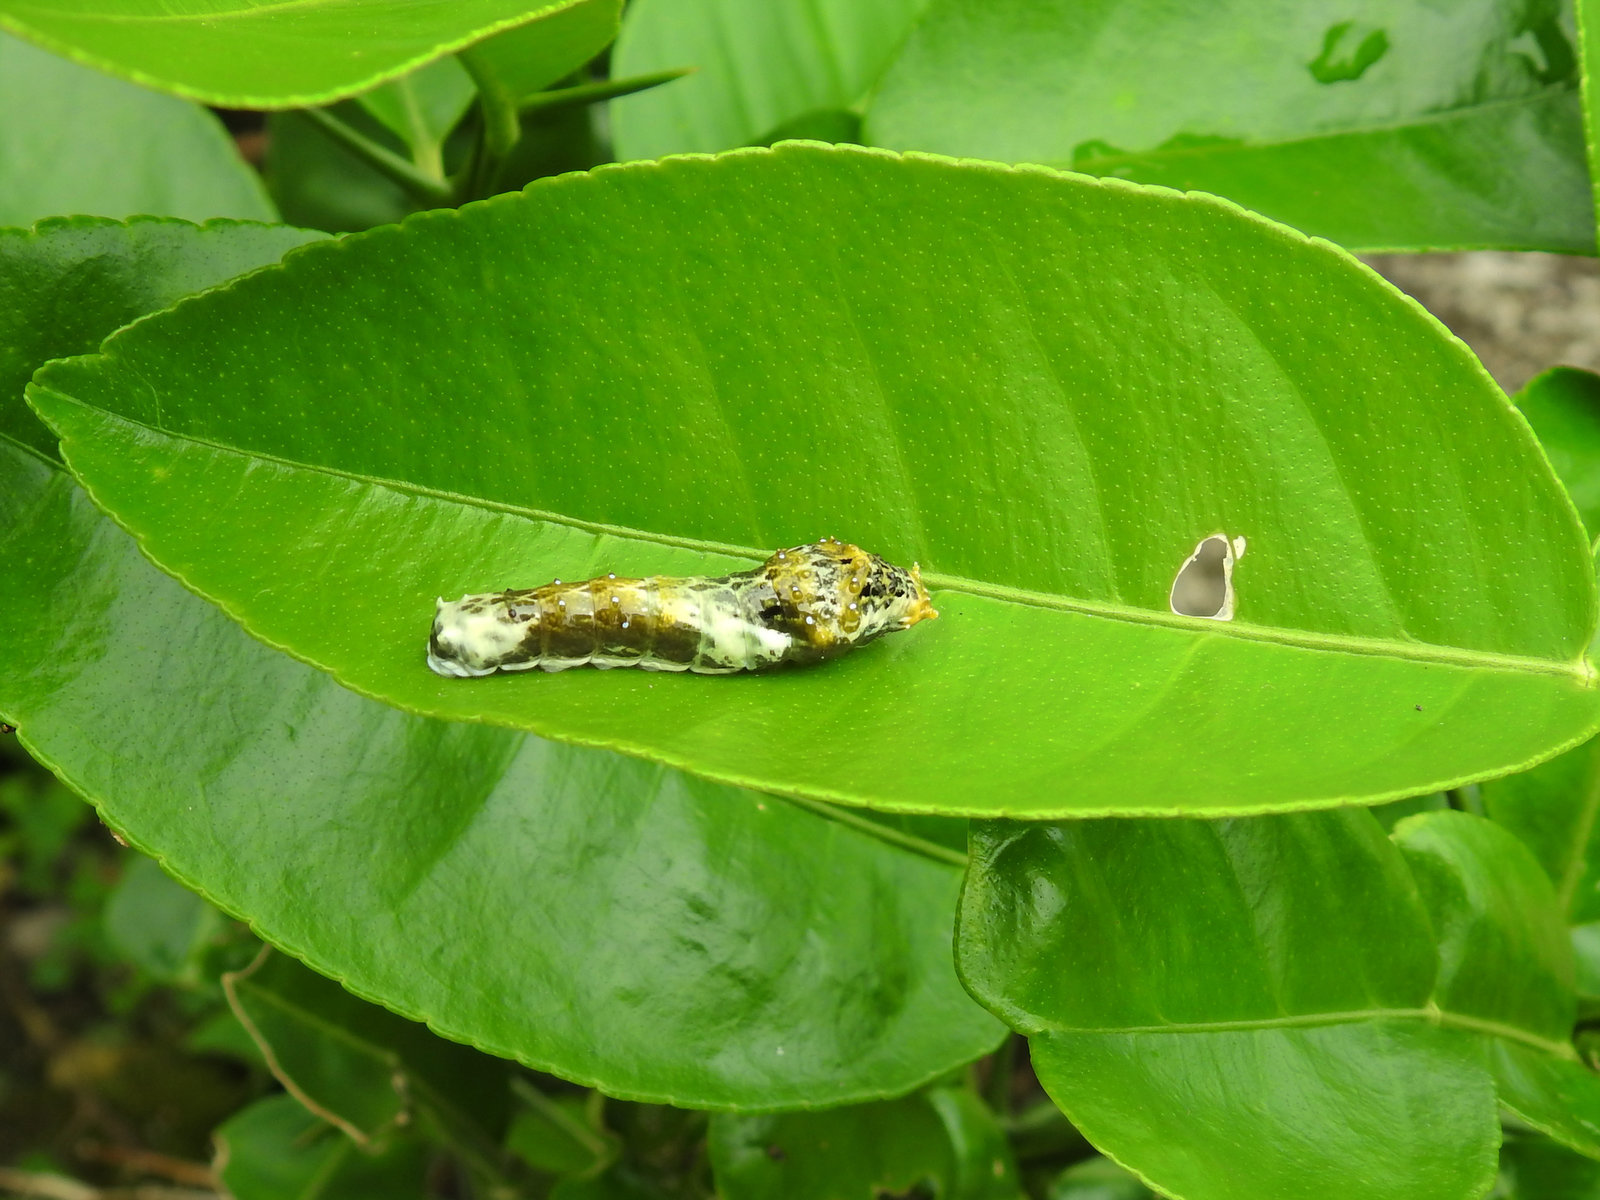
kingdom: Animalia
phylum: Arthropoda
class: Insecta
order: Lepidoptera
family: Papilionidae
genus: Papilio
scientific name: Papilio polytes
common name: Common mormon
